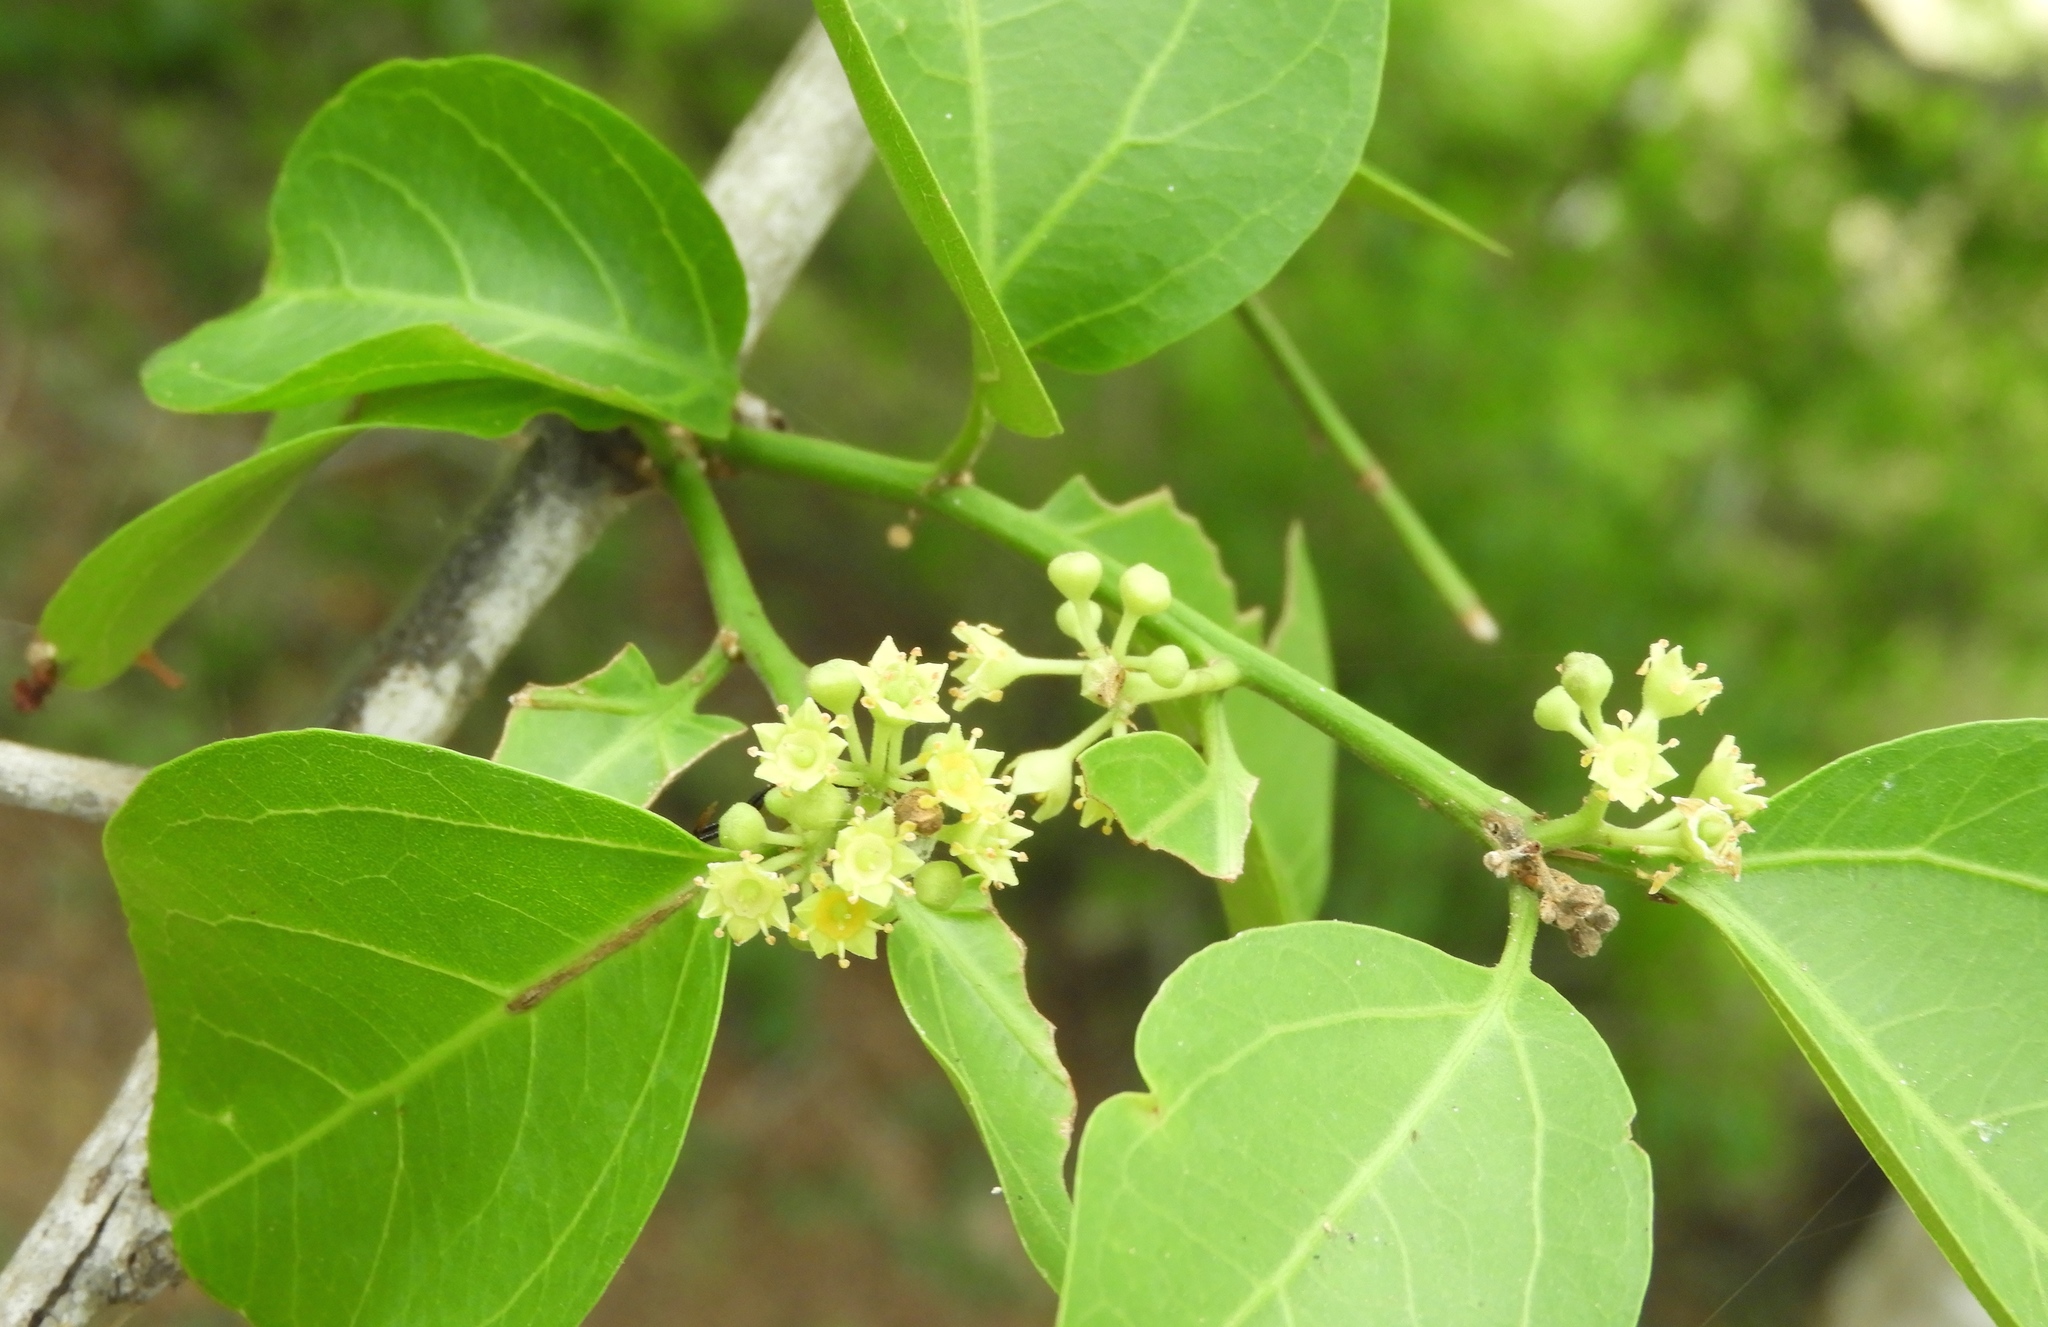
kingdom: Plantae
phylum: Tracheophyta
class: Magnoliopsida
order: Rosales
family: Rhamnaceae
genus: Sarcomphalus
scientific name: Sarcomphalus amole
